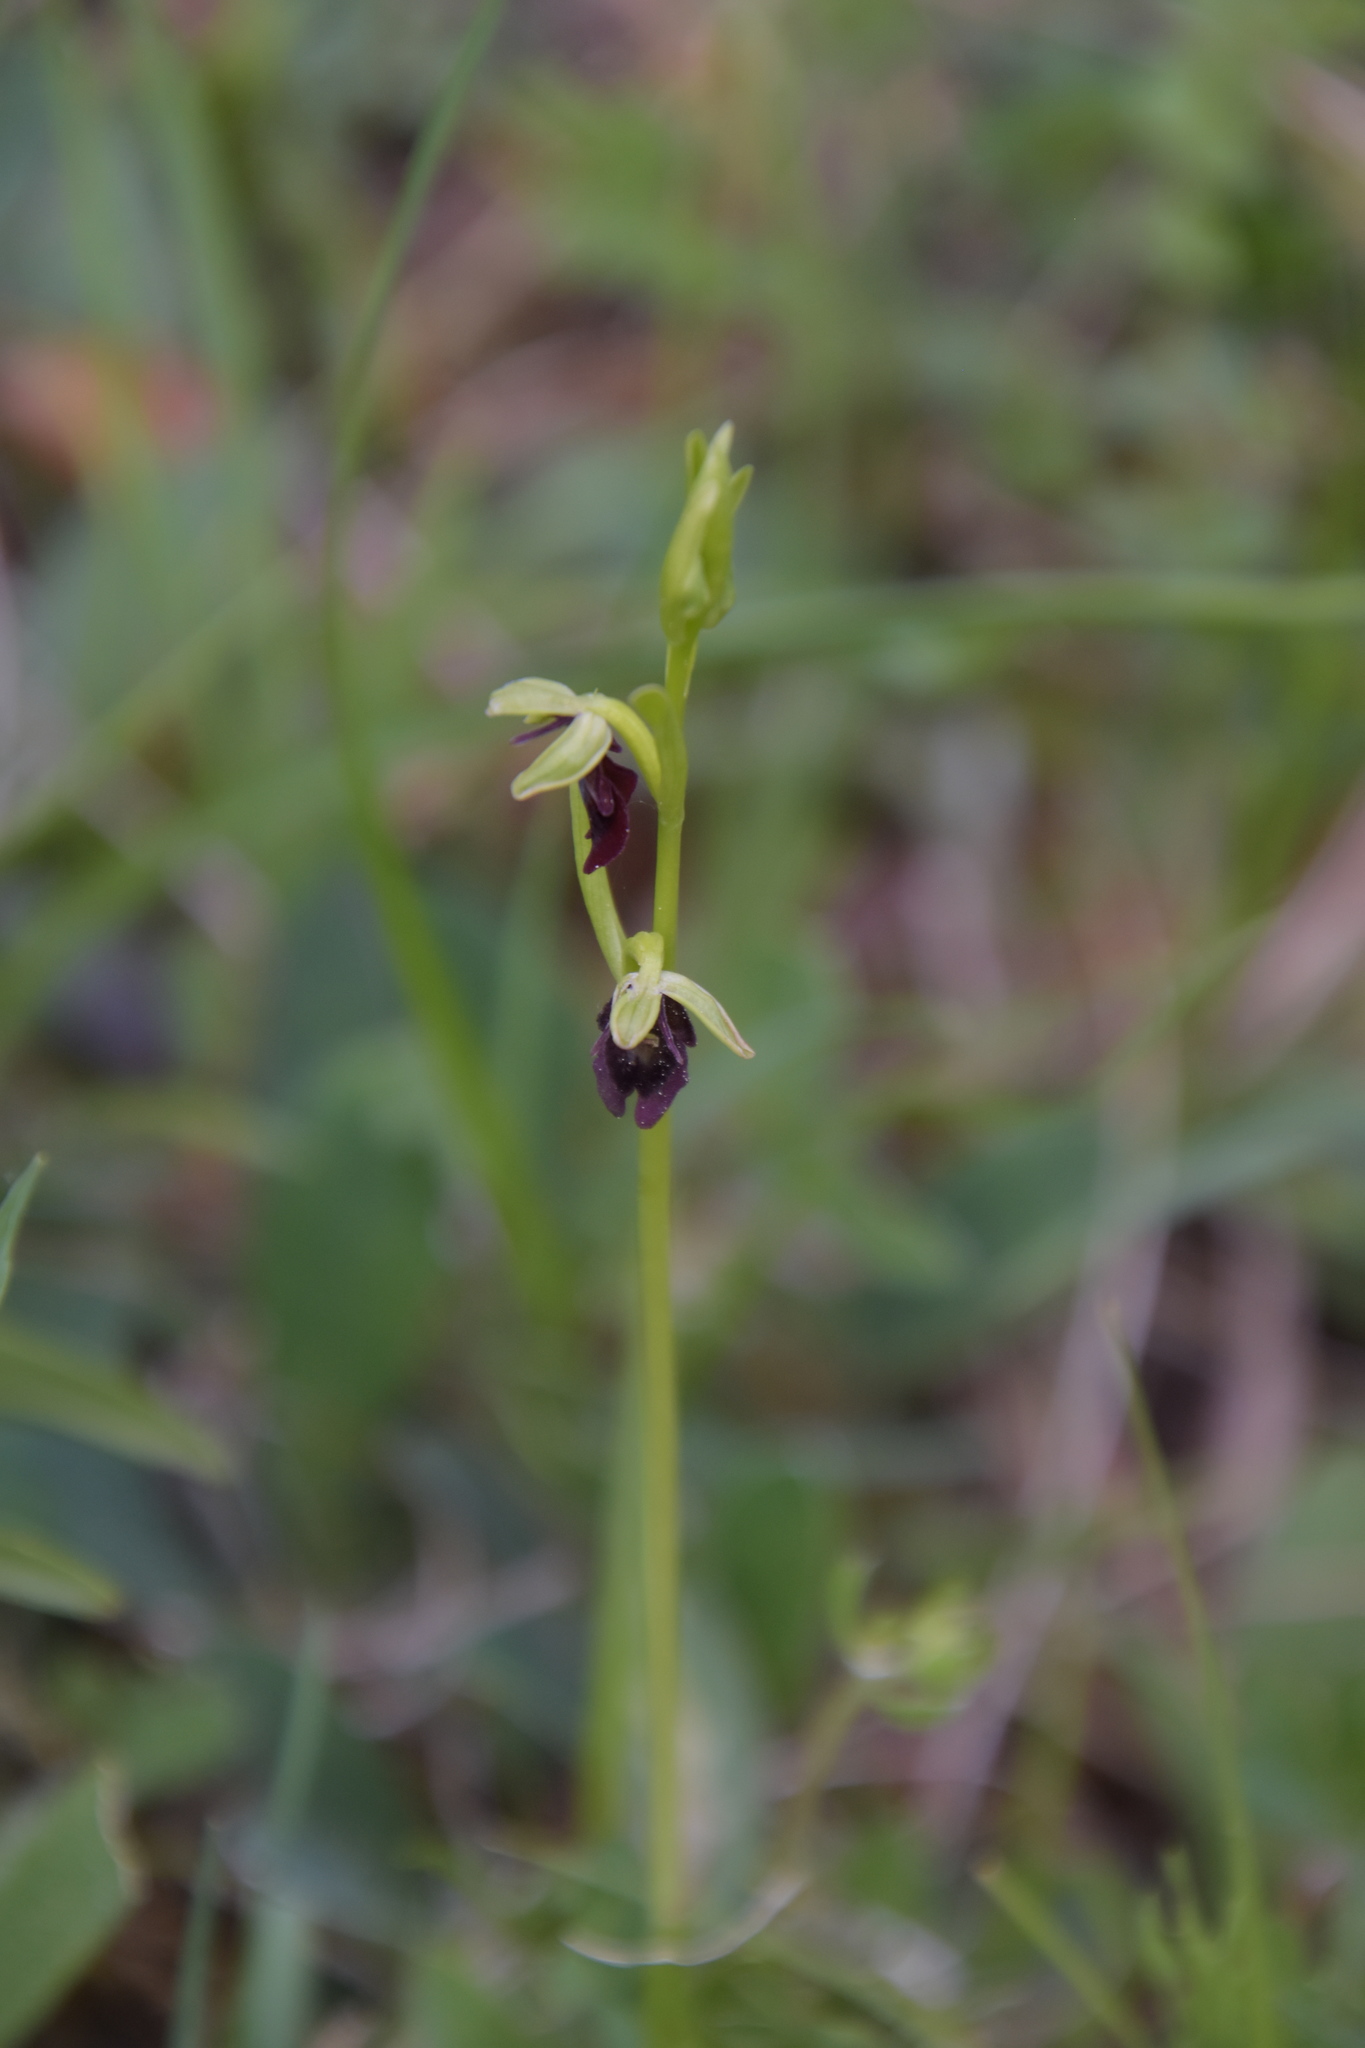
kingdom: Plantae
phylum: Tracheophyta
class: Liliopsida
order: Asparagales
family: Orchidaceae
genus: Ophrys
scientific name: Ophrys insectifera
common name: Fly orchid
